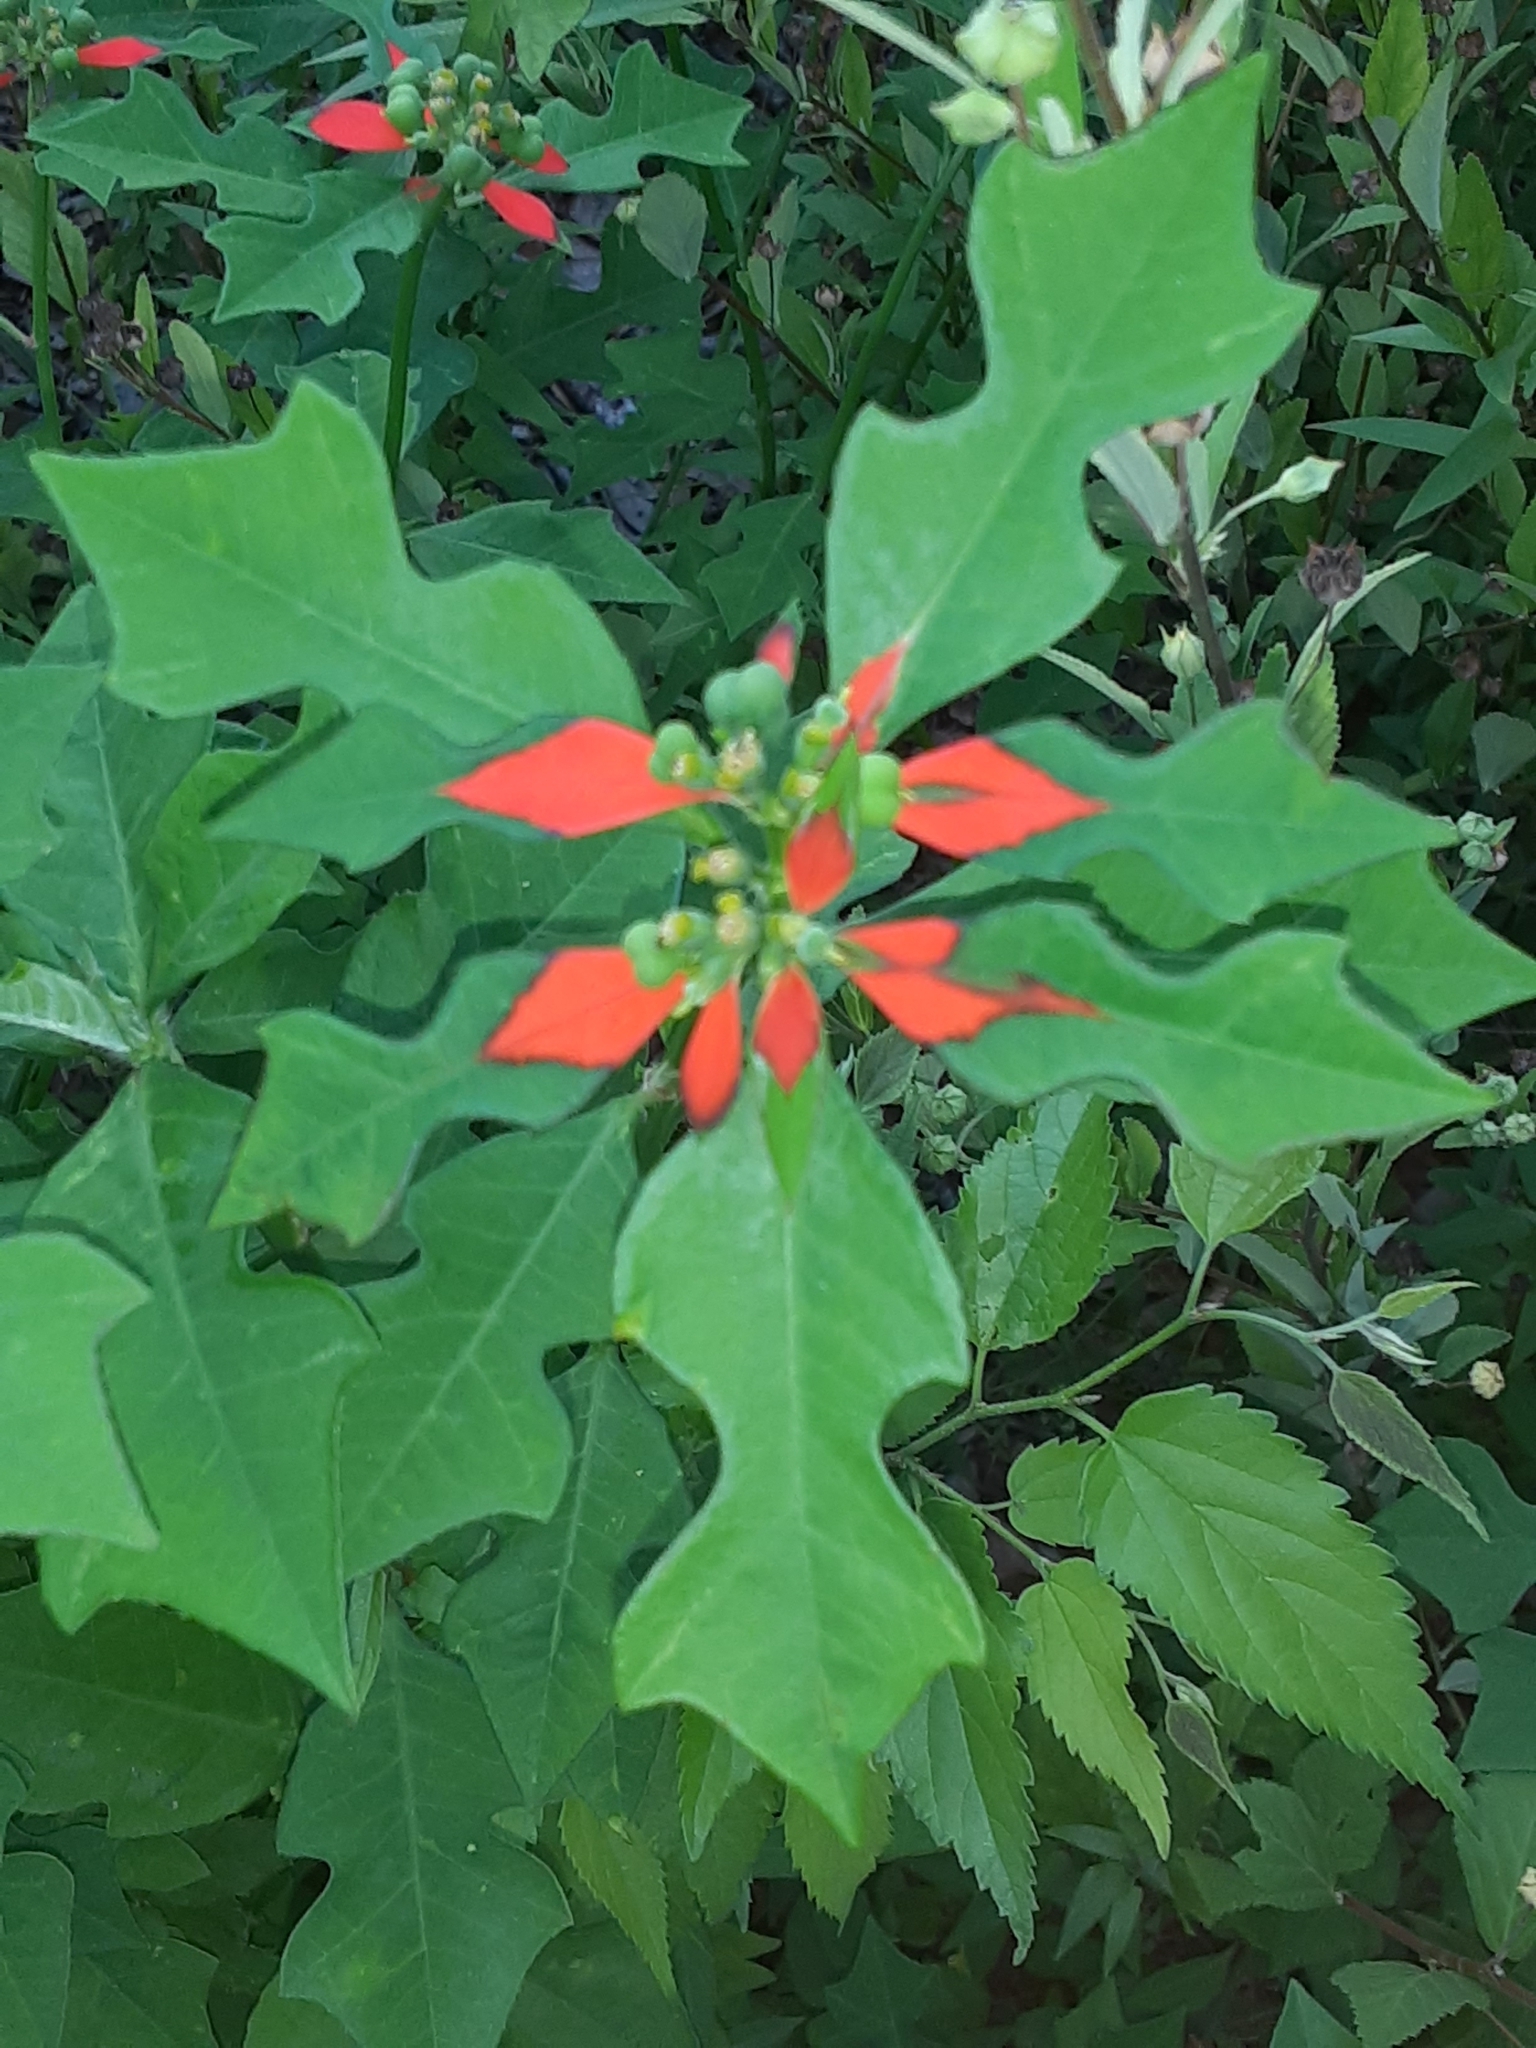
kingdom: Plantae
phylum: Tracheophyta
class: Magnoliopsida
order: Malpighiales
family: Euphorbiaceae
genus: Euphorbia
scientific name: Euphorbia heterophylla
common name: Mexican fireplant
